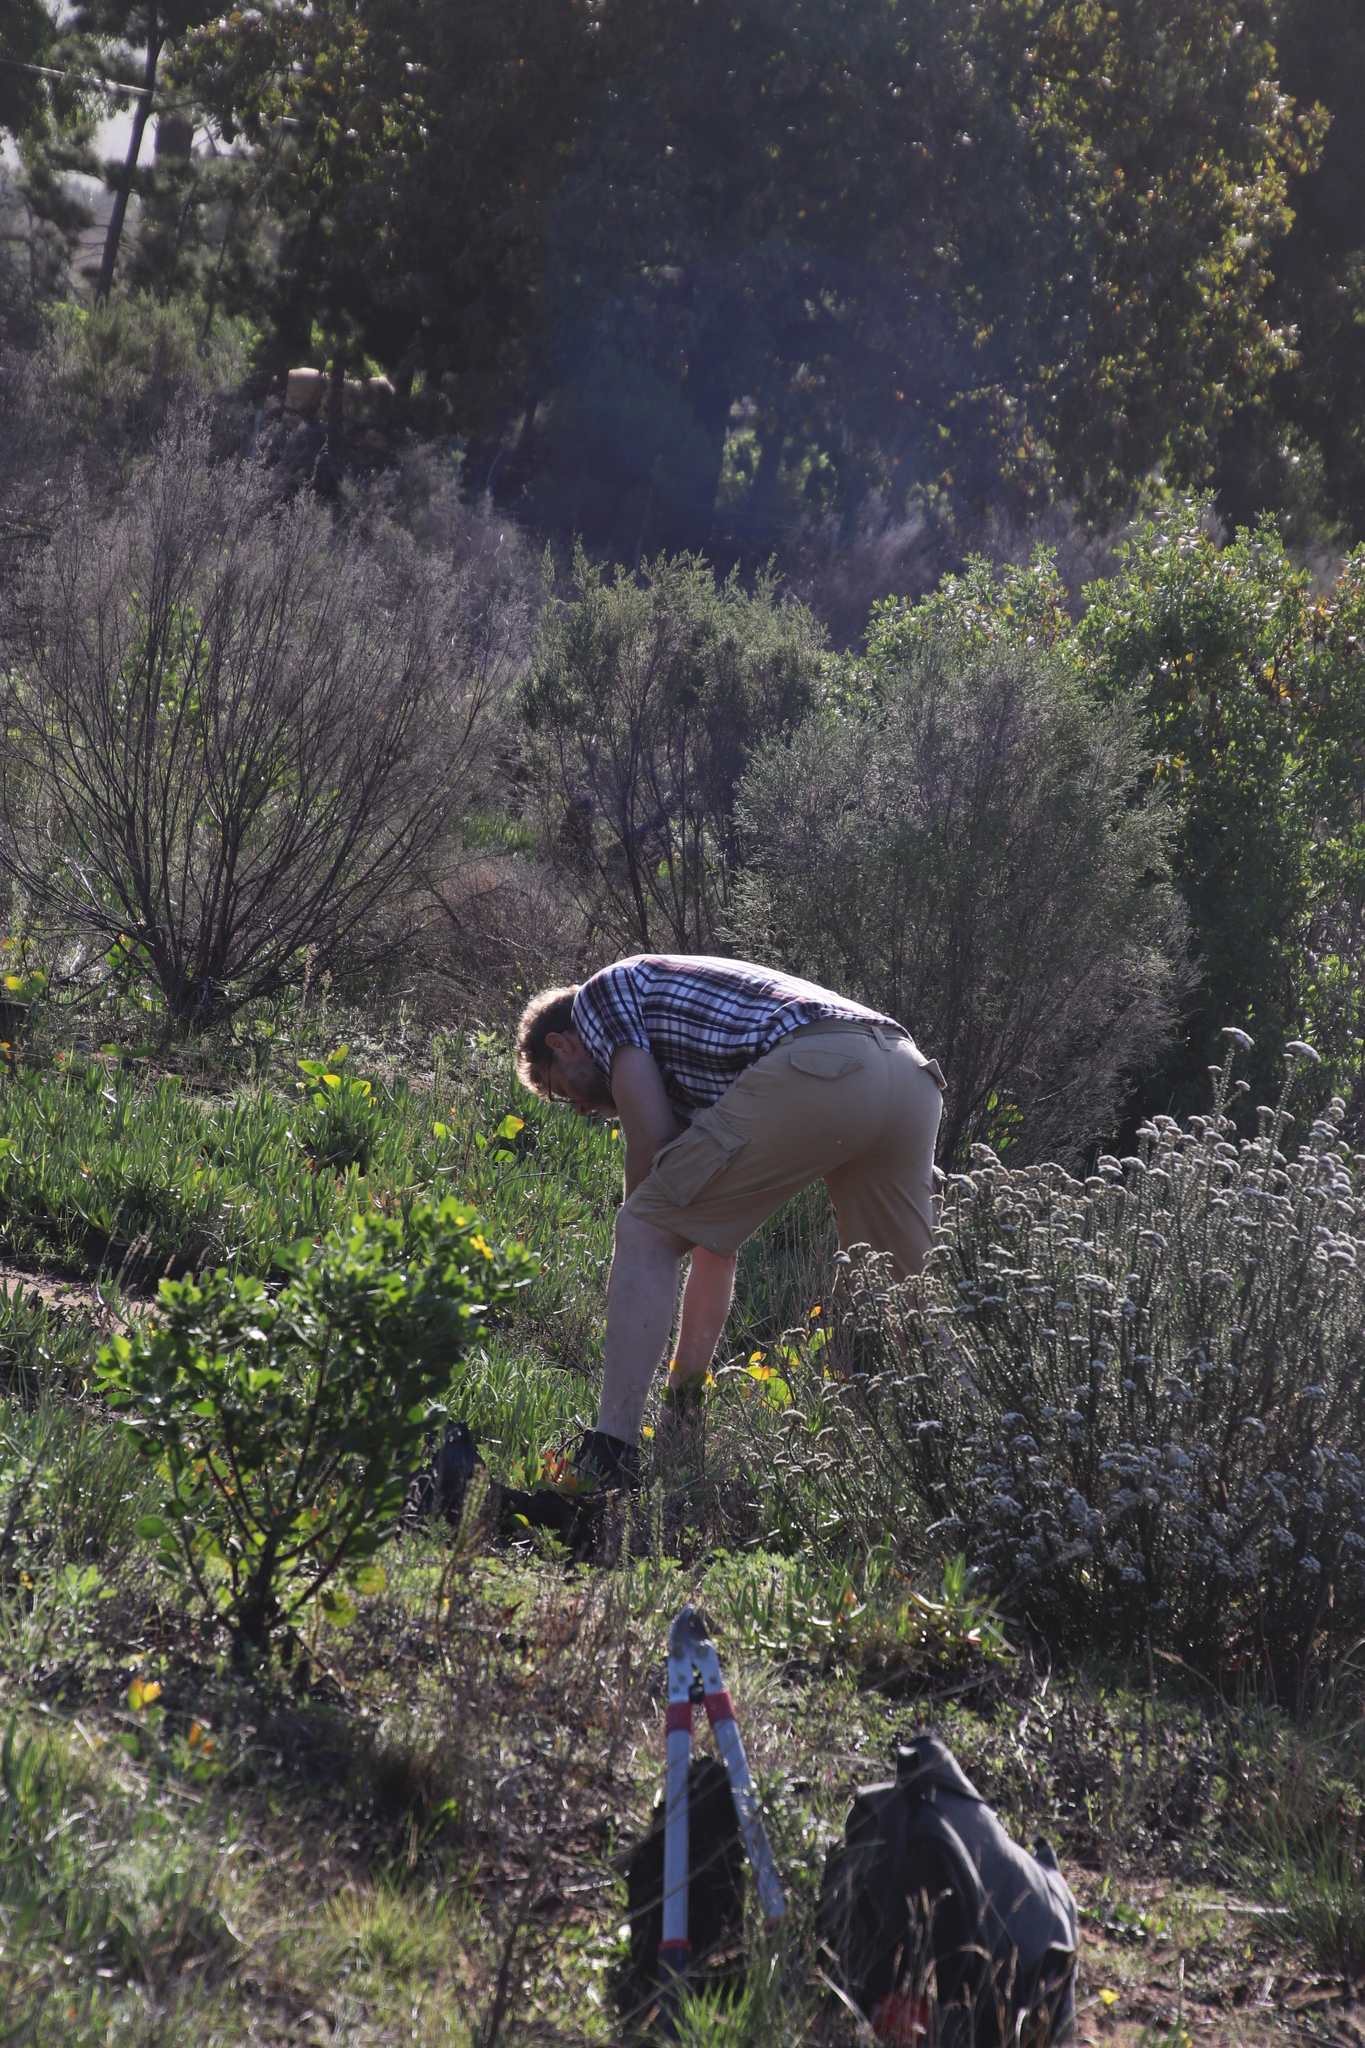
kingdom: Plantae
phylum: Tracheophyta
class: Magnoliopsida
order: Fabales
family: Fabaceae
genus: Acacia
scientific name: Acacia pycnantha
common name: Golden wattle
